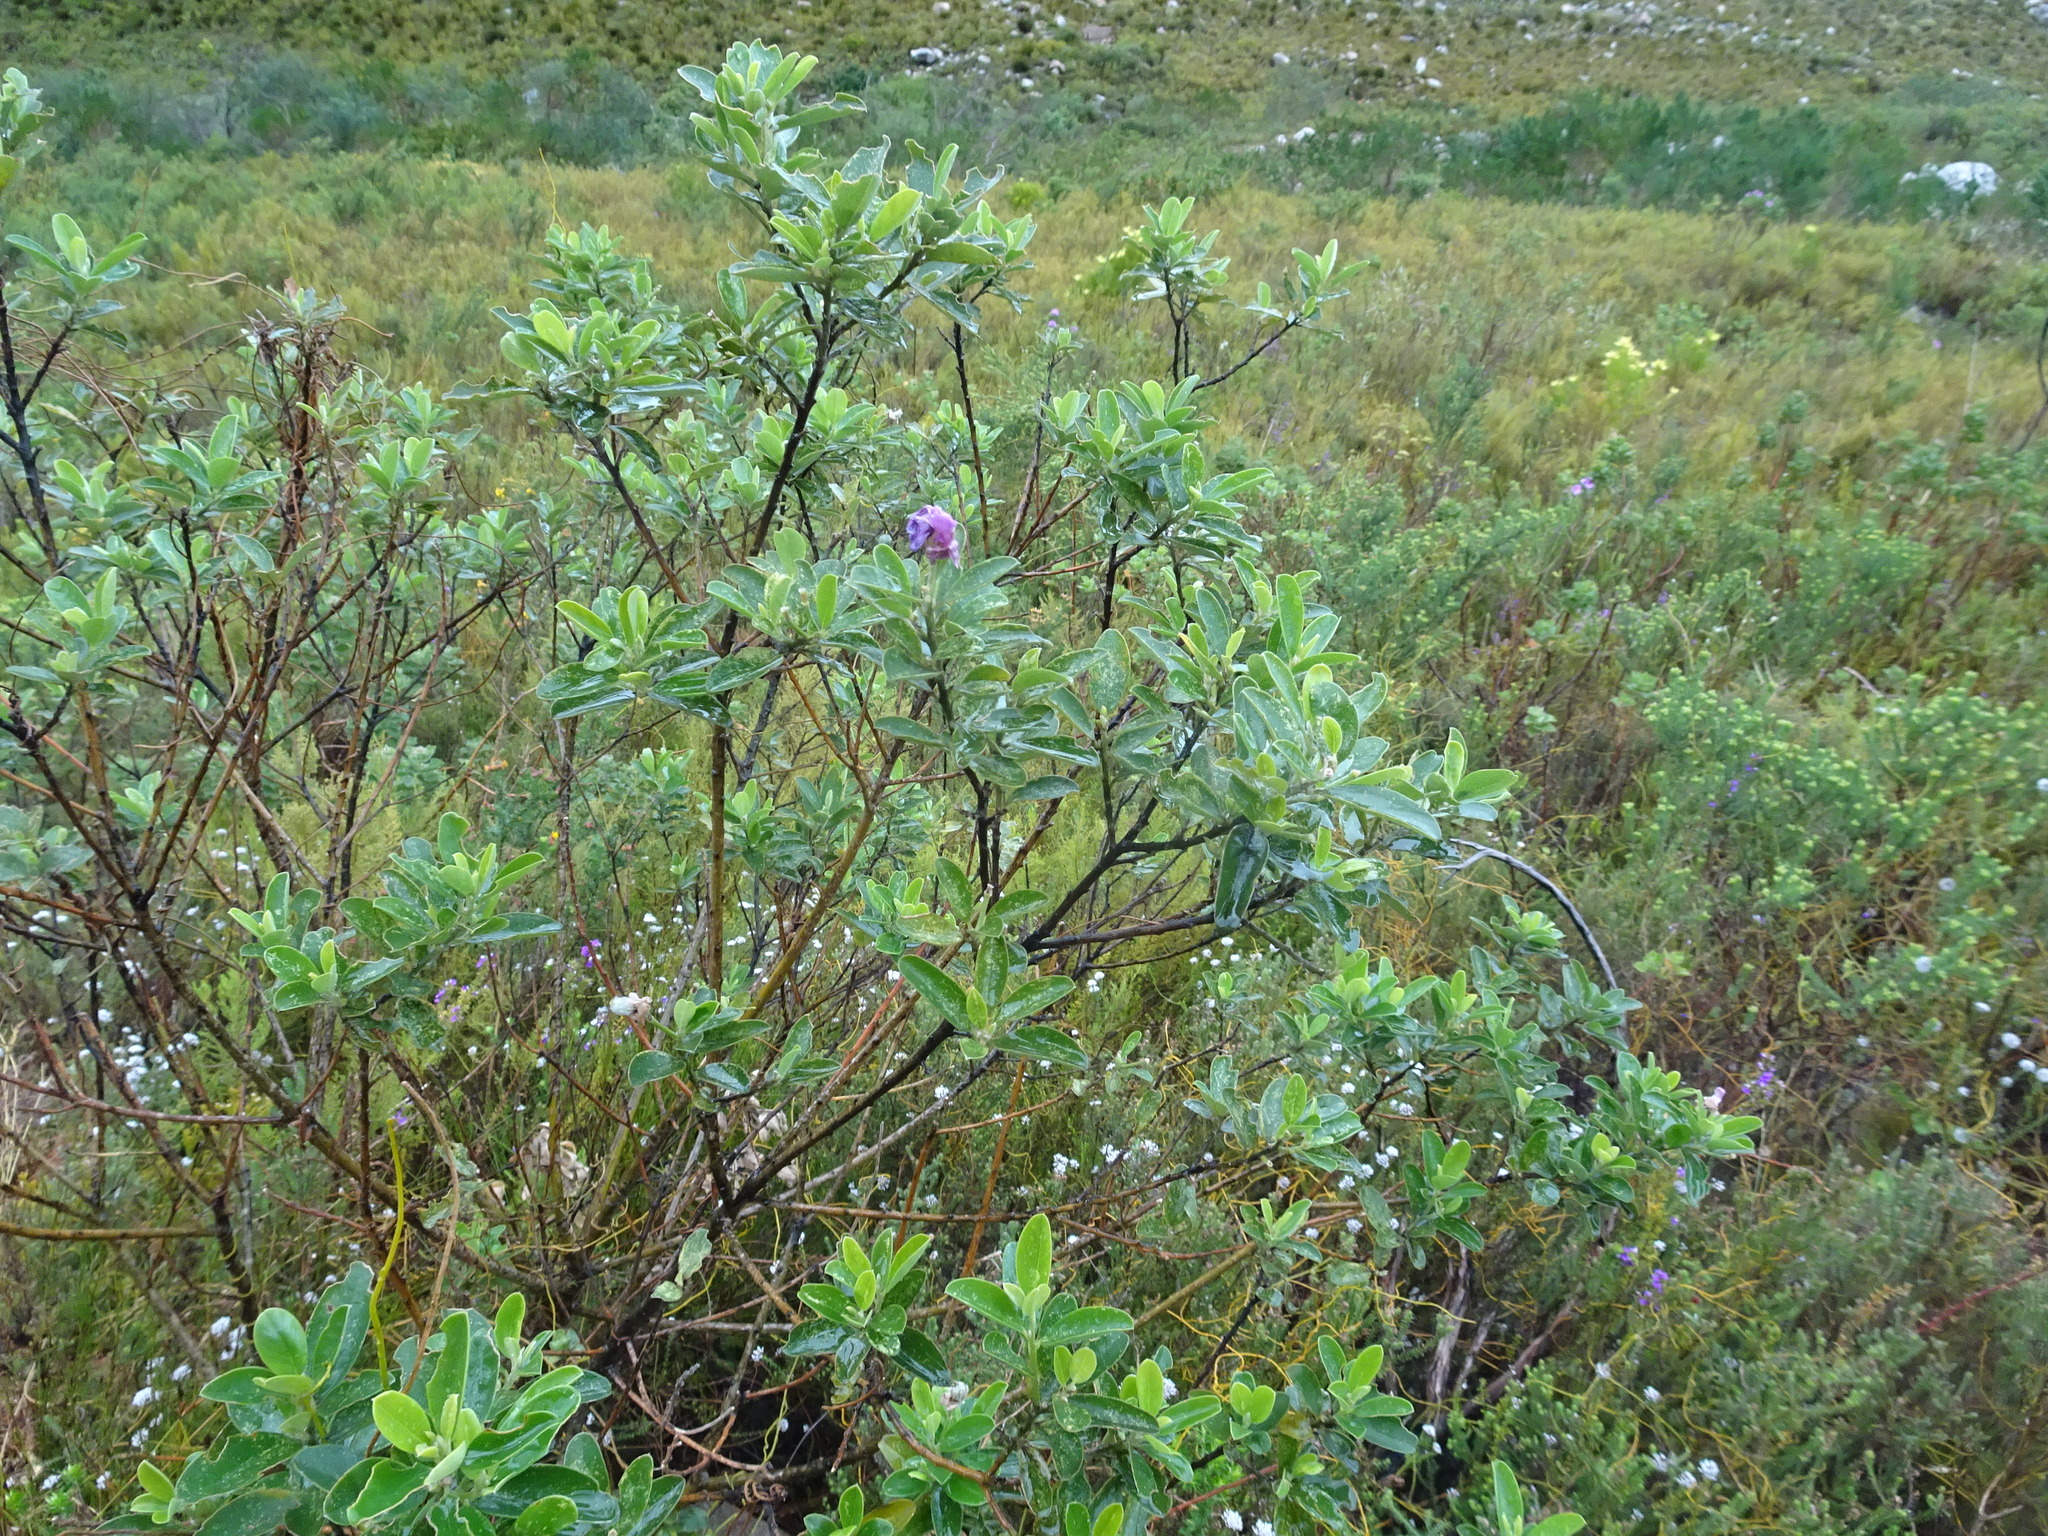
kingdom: Plantae
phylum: Tracheophyta
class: Magnoliopsida
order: Fabales
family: Fabaceae
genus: Podalyria
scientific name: Podalyria calyptrata
